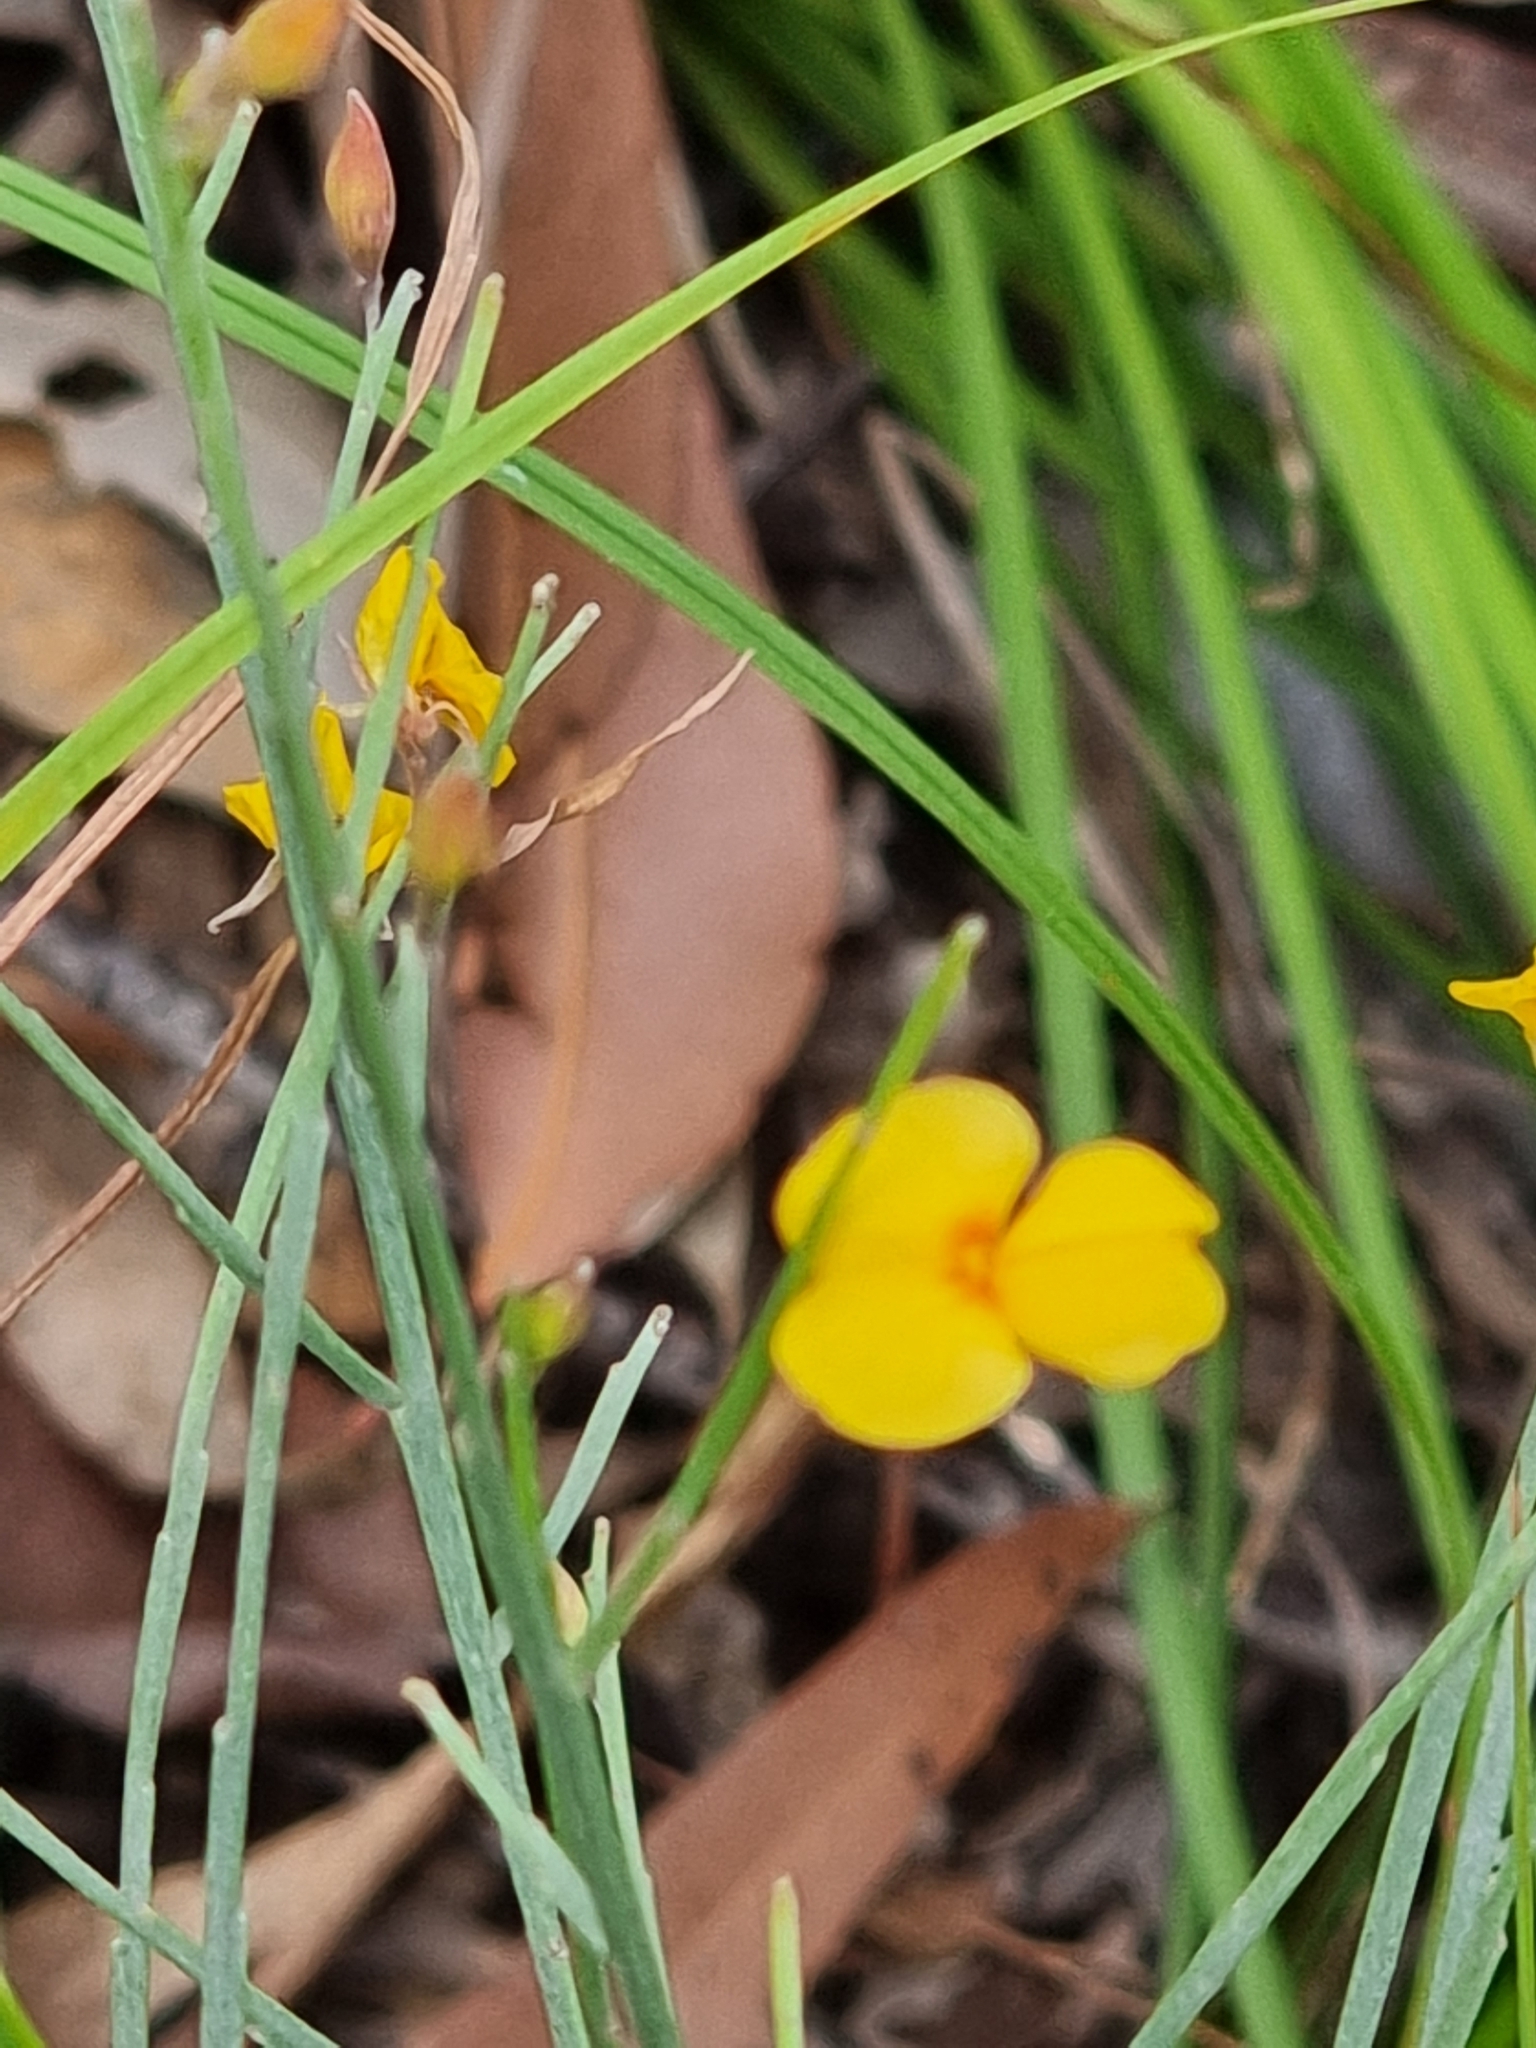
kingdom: Plantae
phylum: Tracheophyta
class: Magnoliopsida
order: Fabales
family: Fabaceae
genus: Jacksonia
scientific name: Jacksonia scoparia
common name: Dogwood
